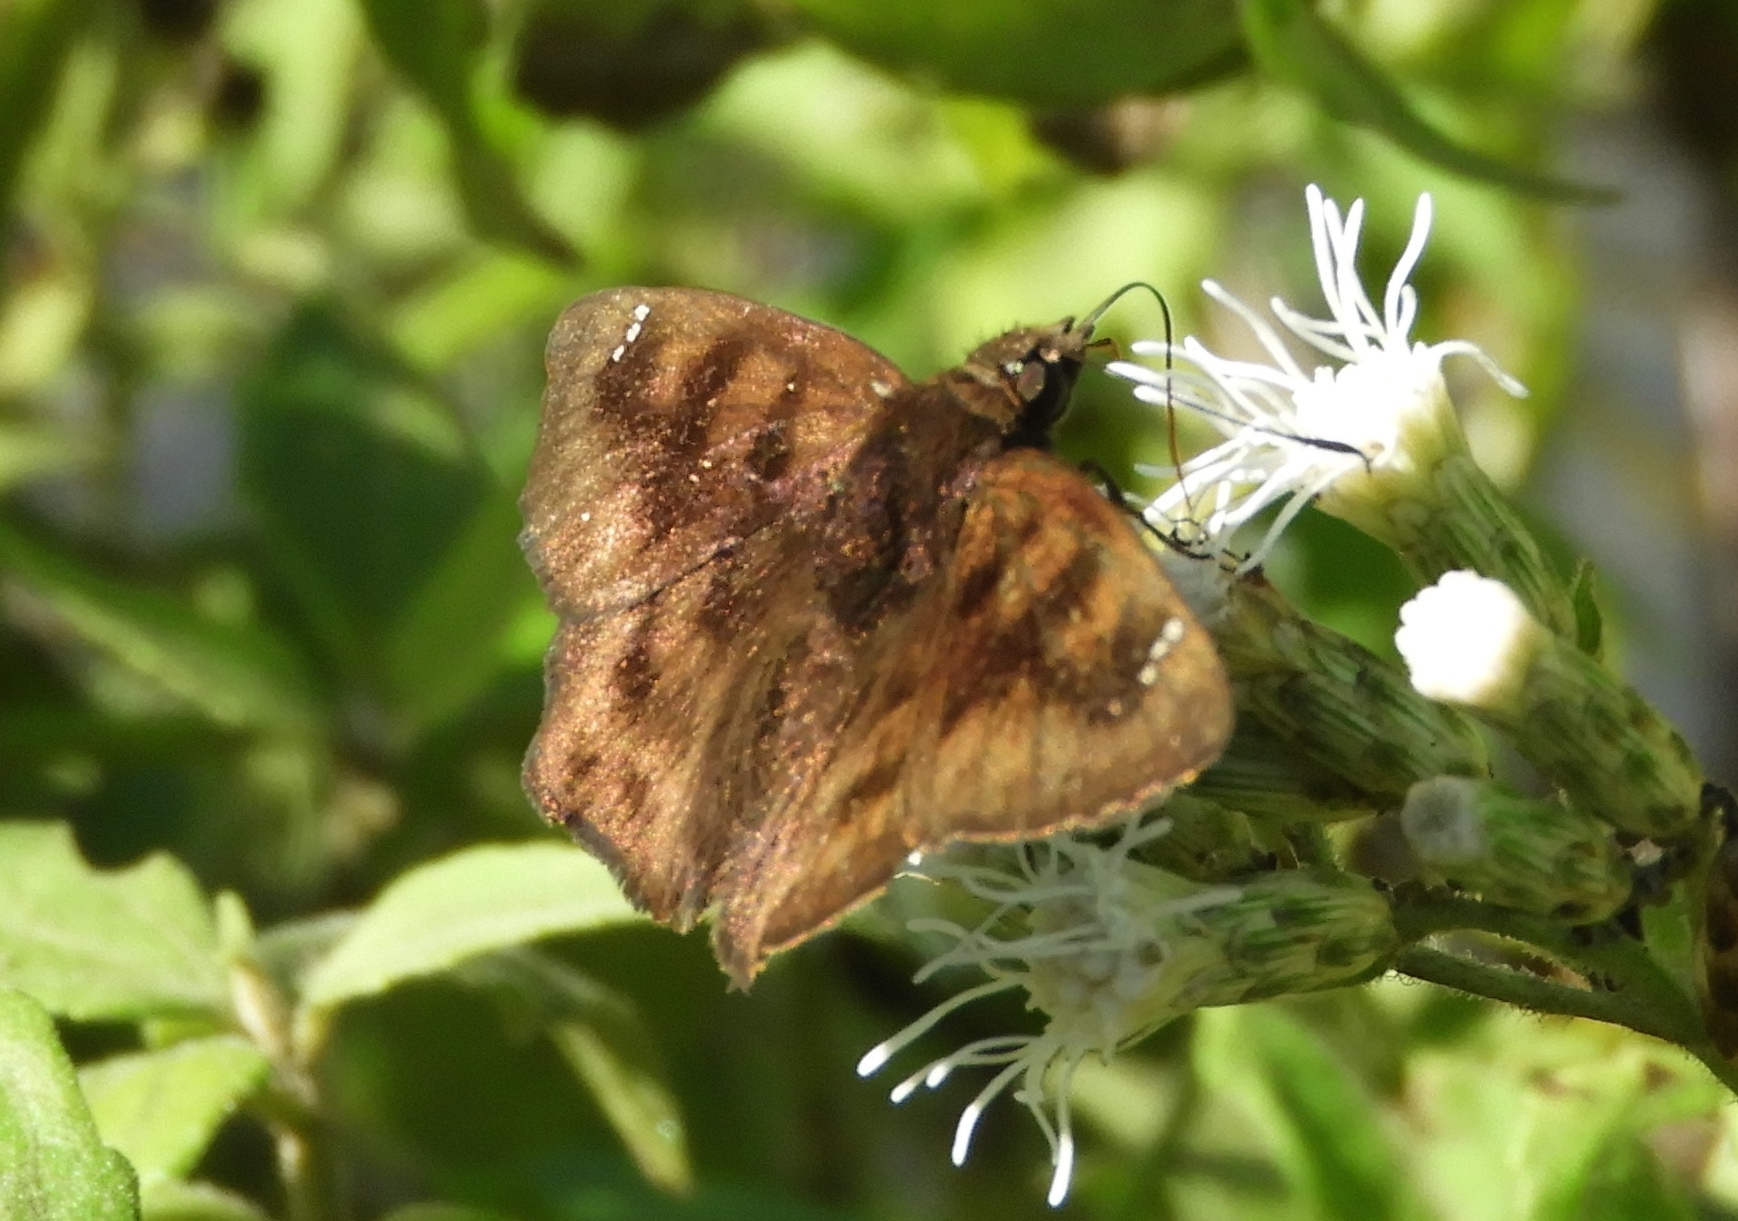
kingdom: Animalia
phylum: Arthropoda
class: Insecta
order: Lepidoptera
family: Hesperiidae
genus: Nisoniades
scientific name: Nisoniades
